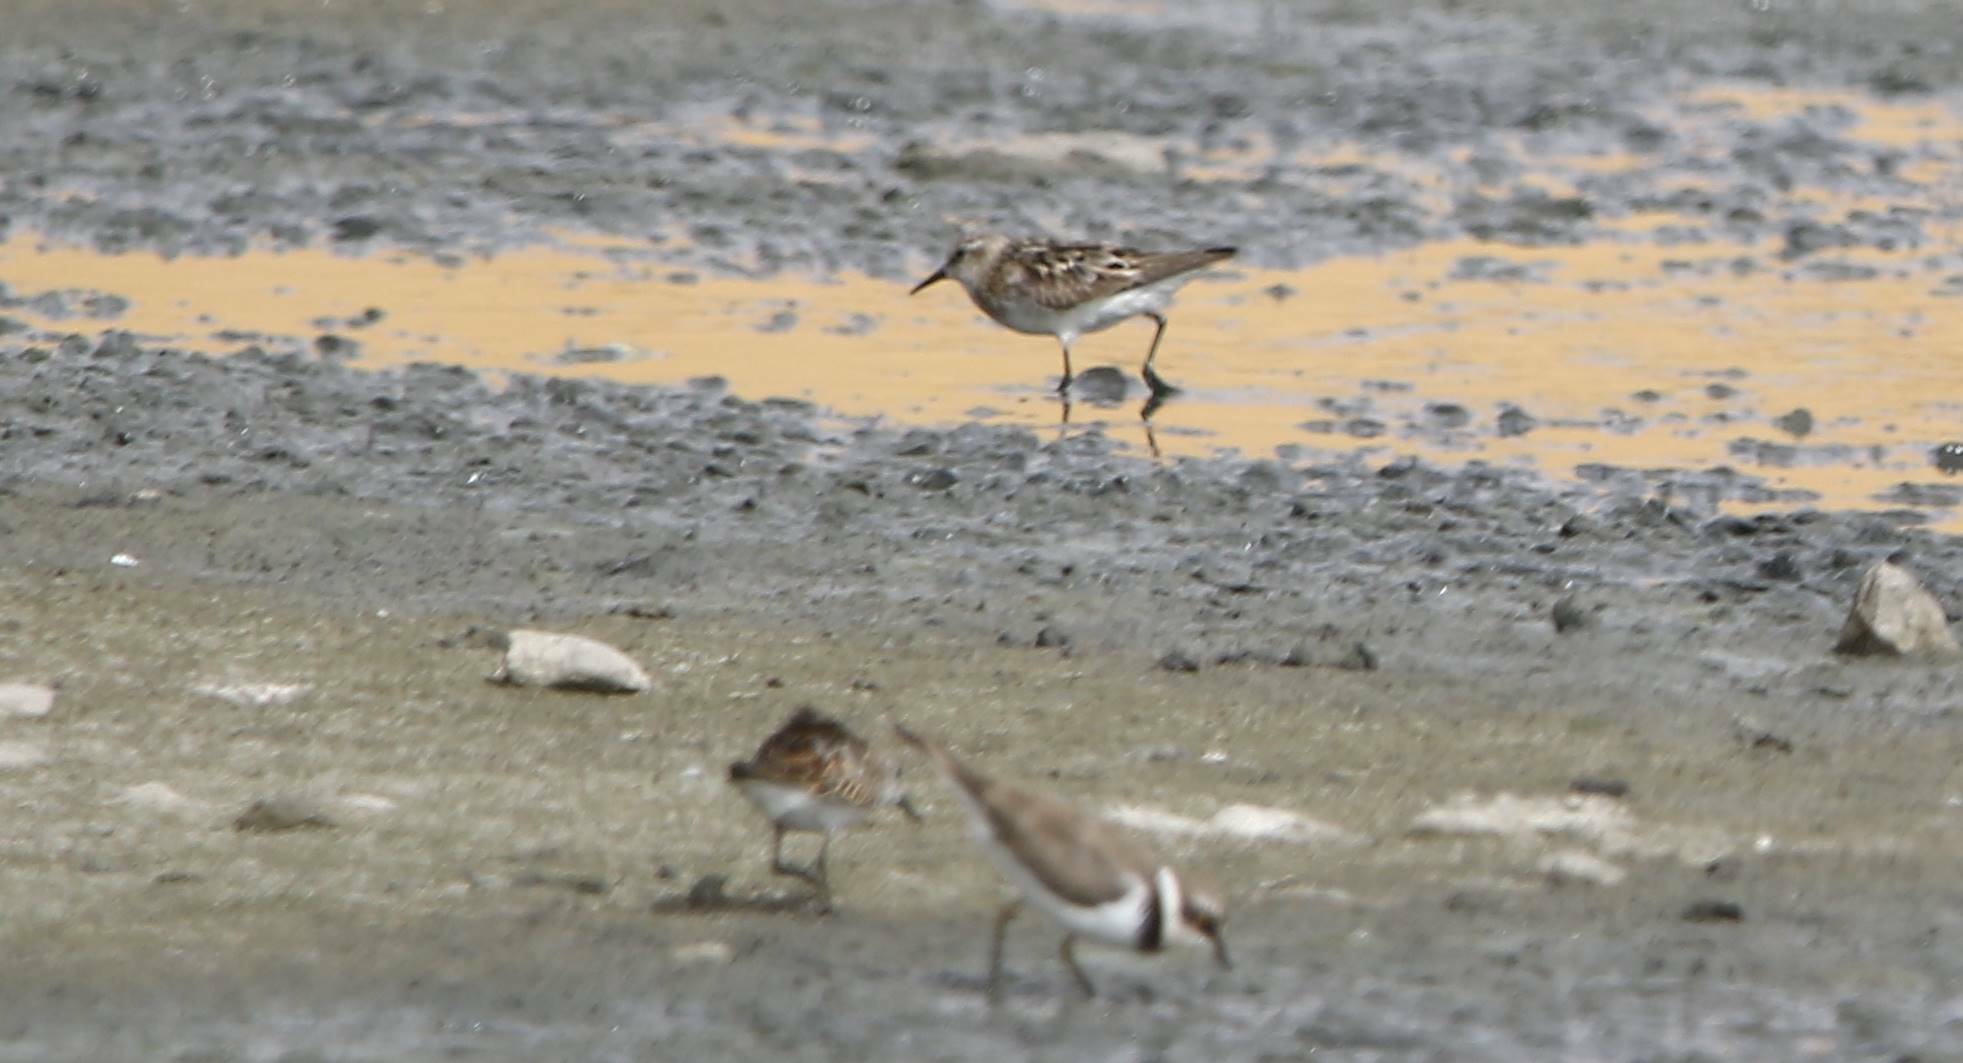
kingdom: Animalia
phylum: Chordata
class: Aves
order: Charadriiformes
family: Scolopacidae
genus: Calidris
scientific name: Calidris minuta
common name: Little stint
